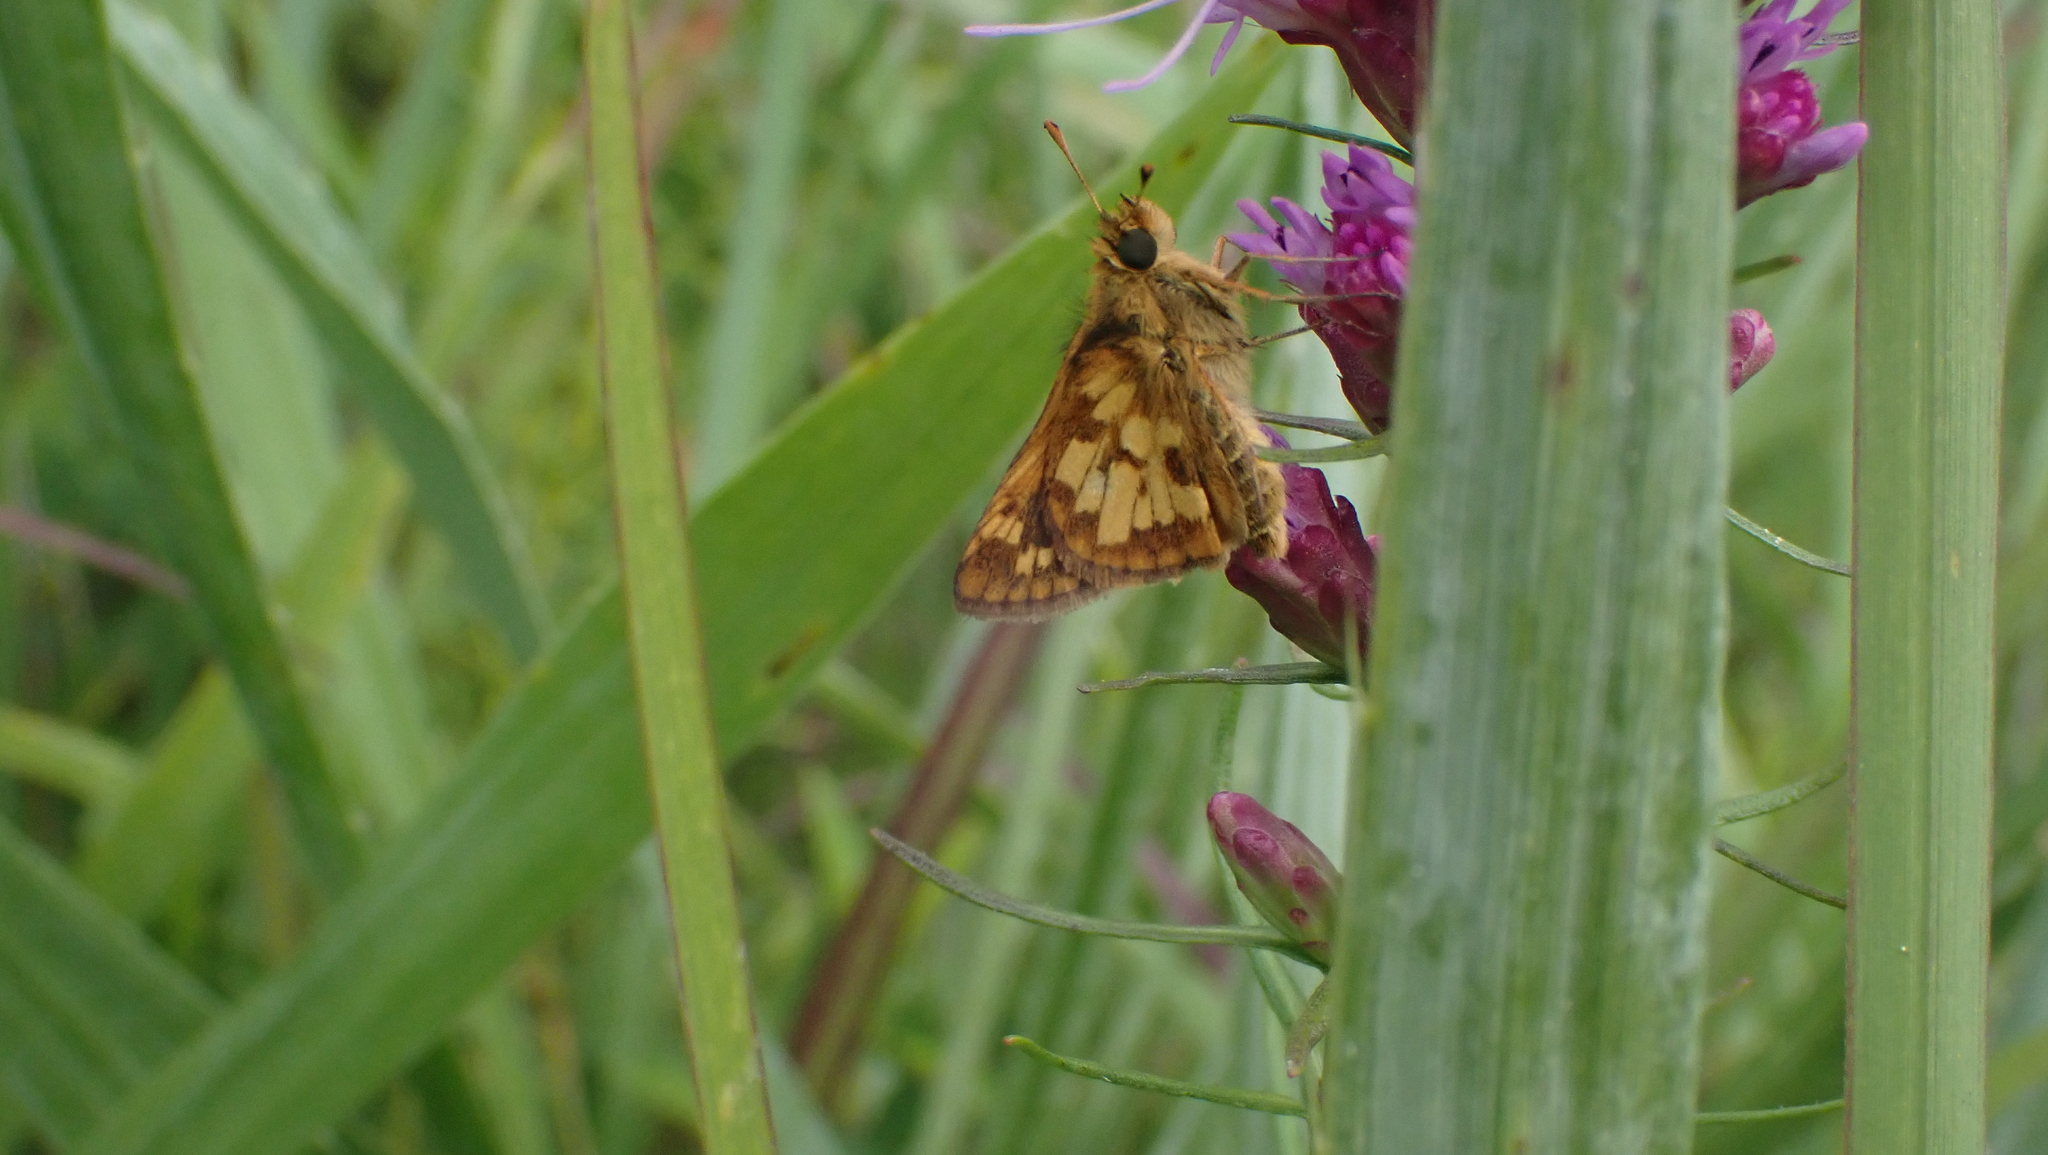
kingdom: Animalia
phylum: Arthropoda
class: Insecta
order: Lepidoptera
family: Hesperiidae
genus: Polites
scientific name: Polites coras
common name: Peck's skipper
